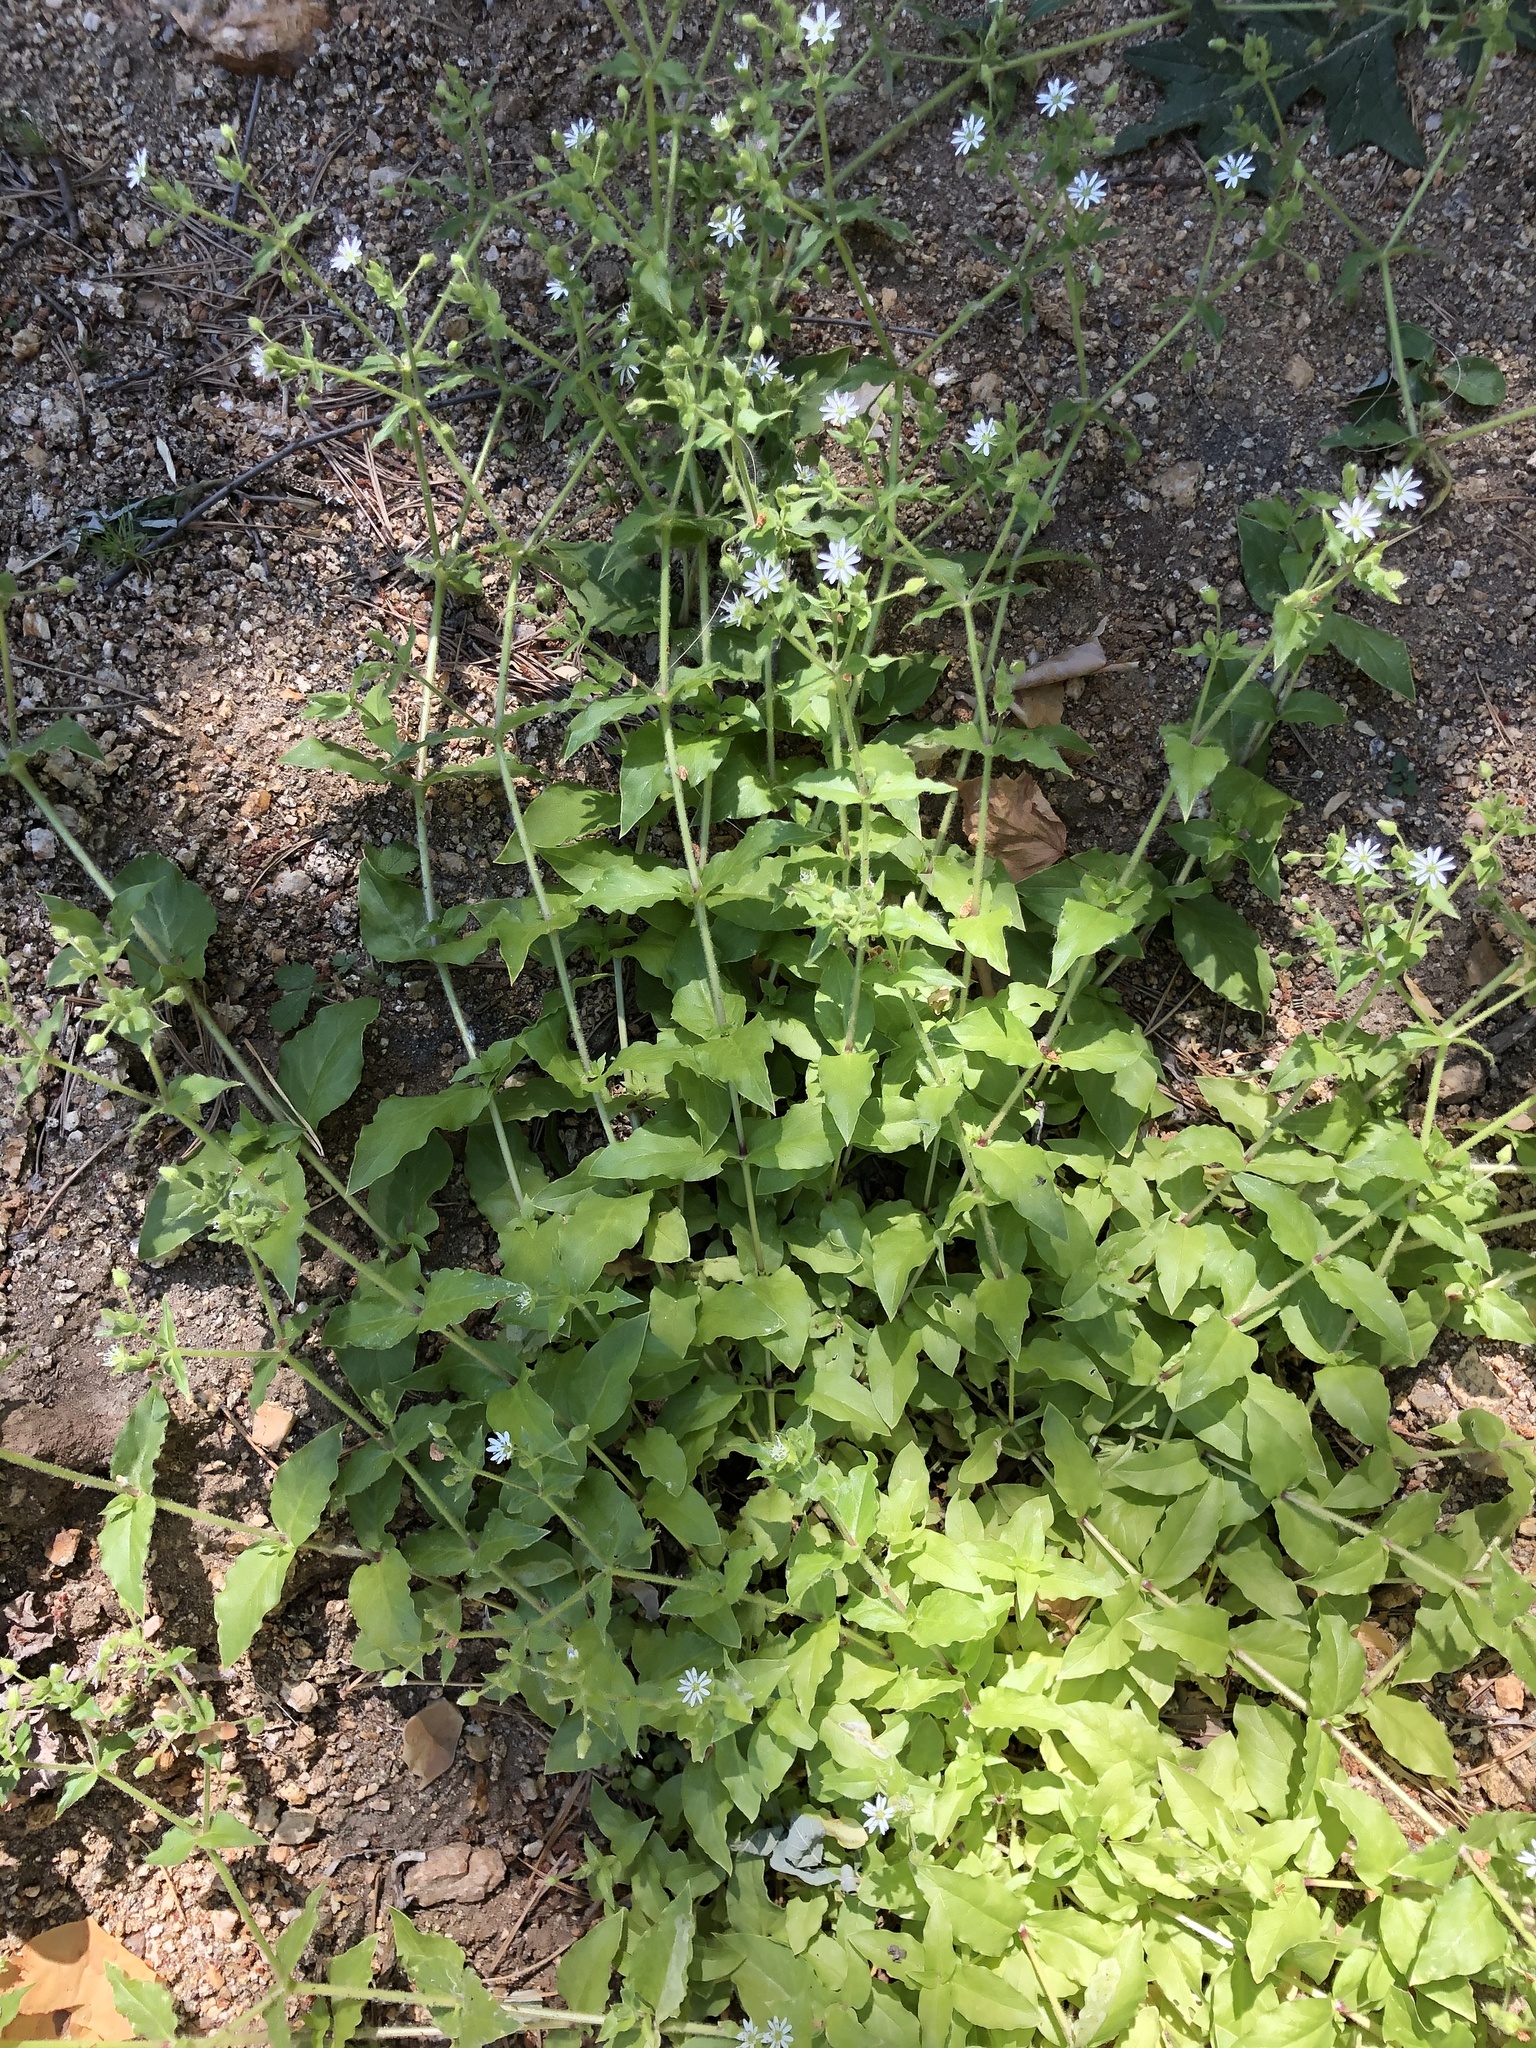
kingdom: Plantae
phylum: Tracheophyta
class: Magnoliopsida
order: Caryophyllales
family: Caryophyllaceae
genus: Stellaria
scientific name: Stellaria aquatica
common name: Water chickweed
